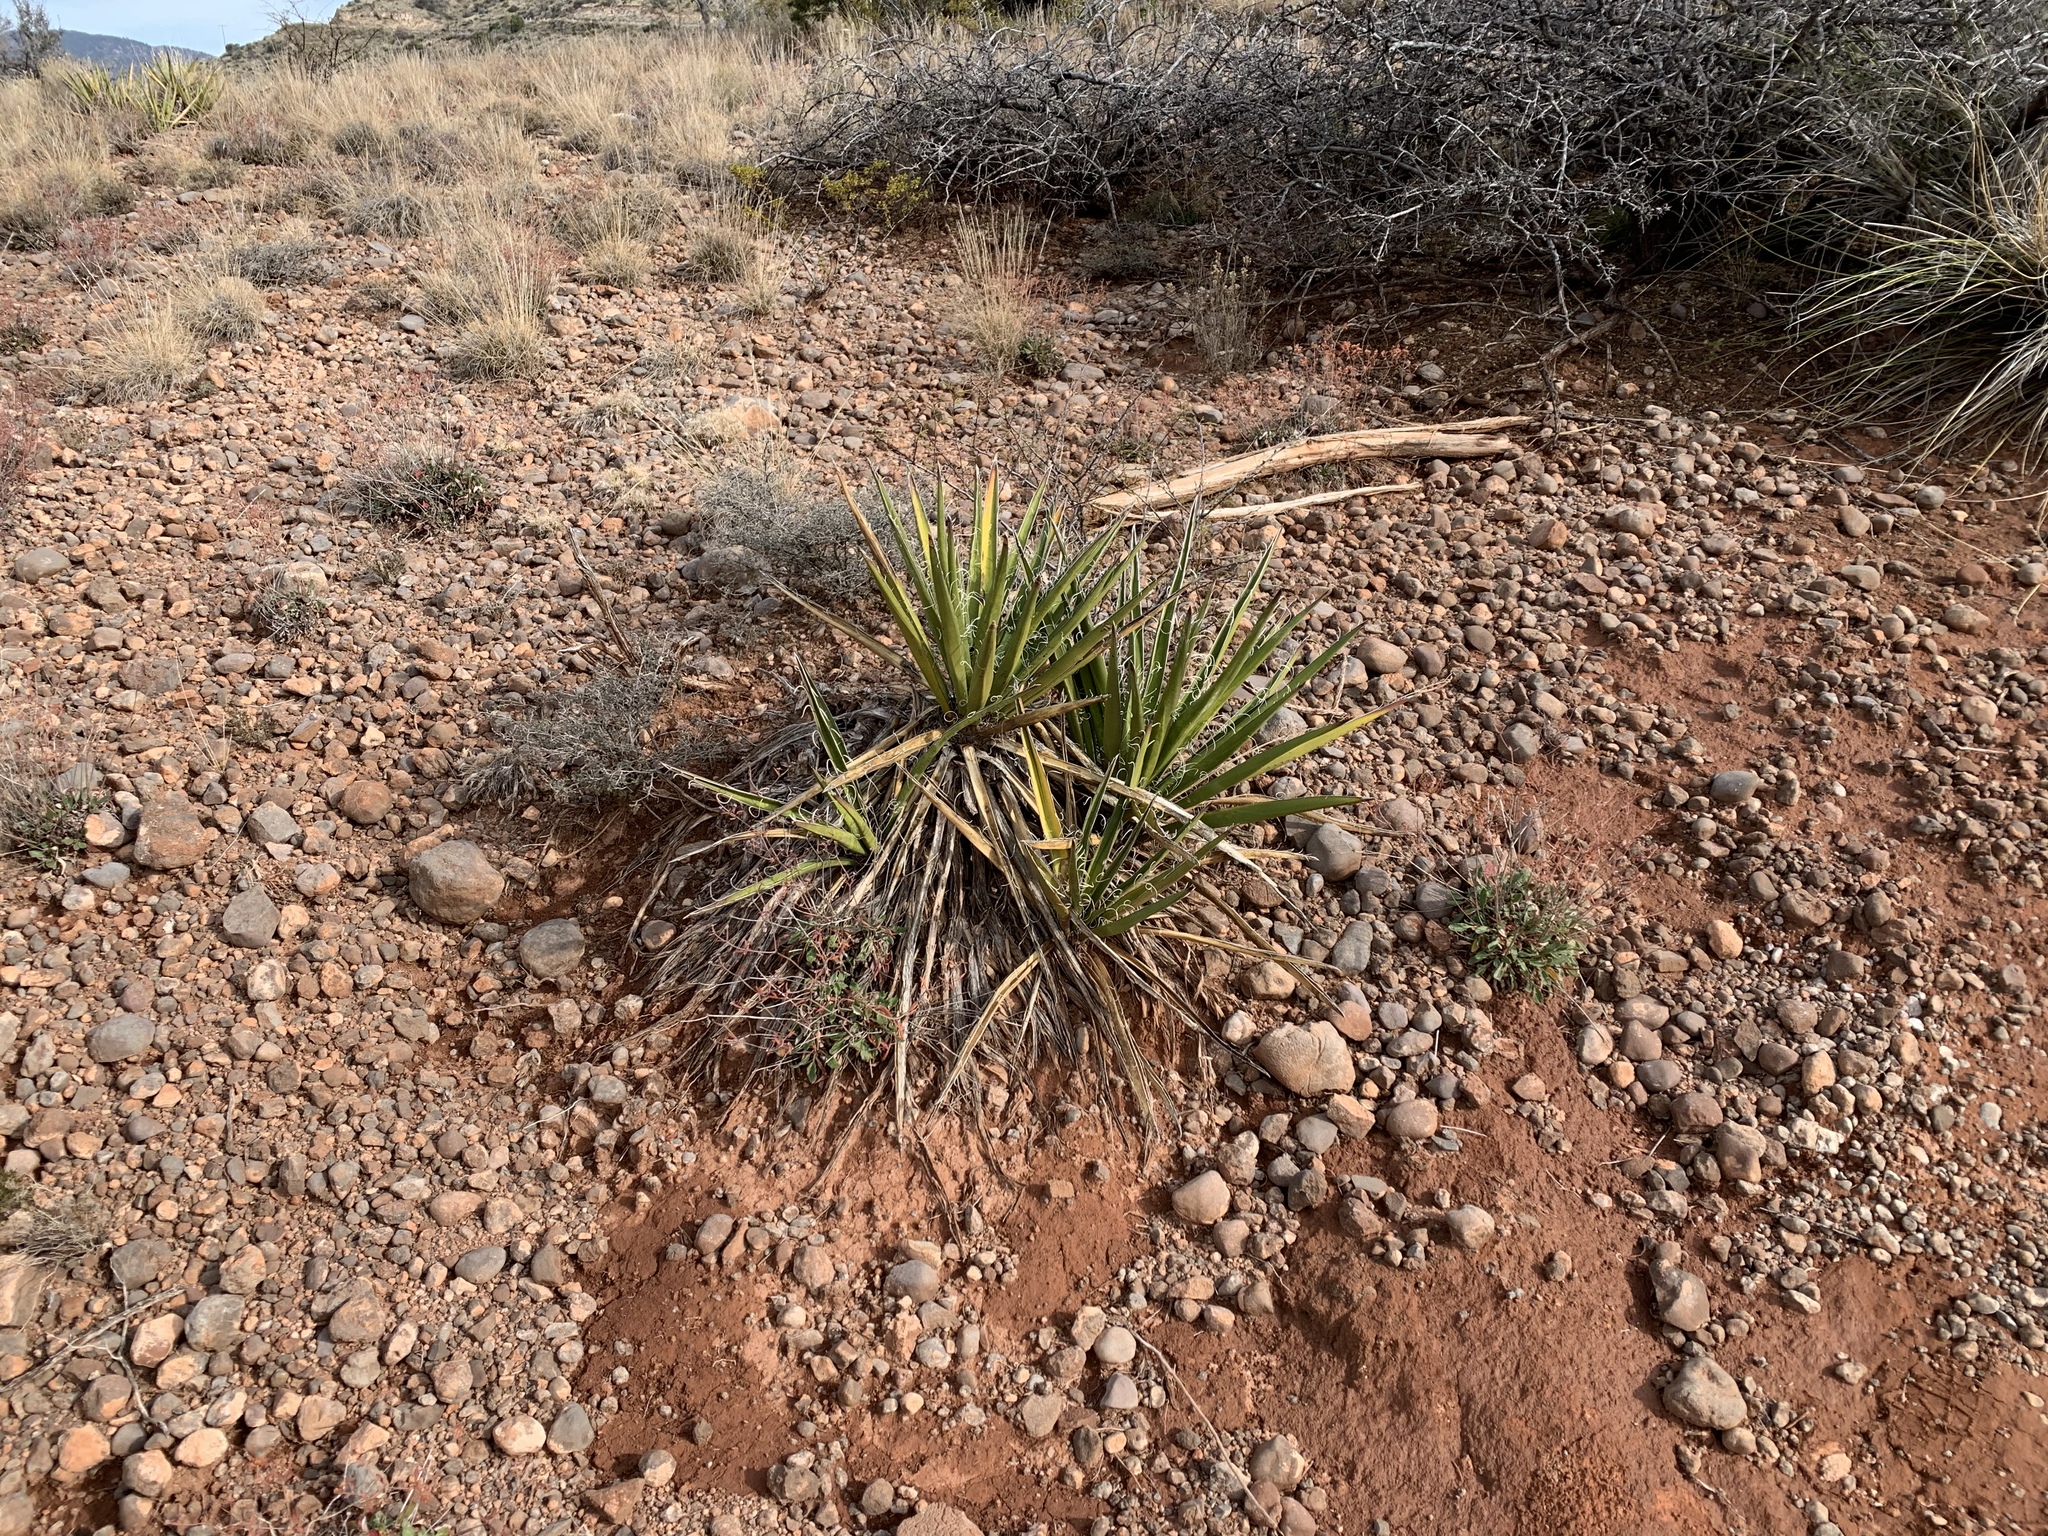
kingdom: Plantae
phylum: Tracheophyta
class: Liliopsida
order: Asparagales
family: Asparagaceae
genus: Yucca
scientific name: Yucca baccata
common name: Banana yucca
